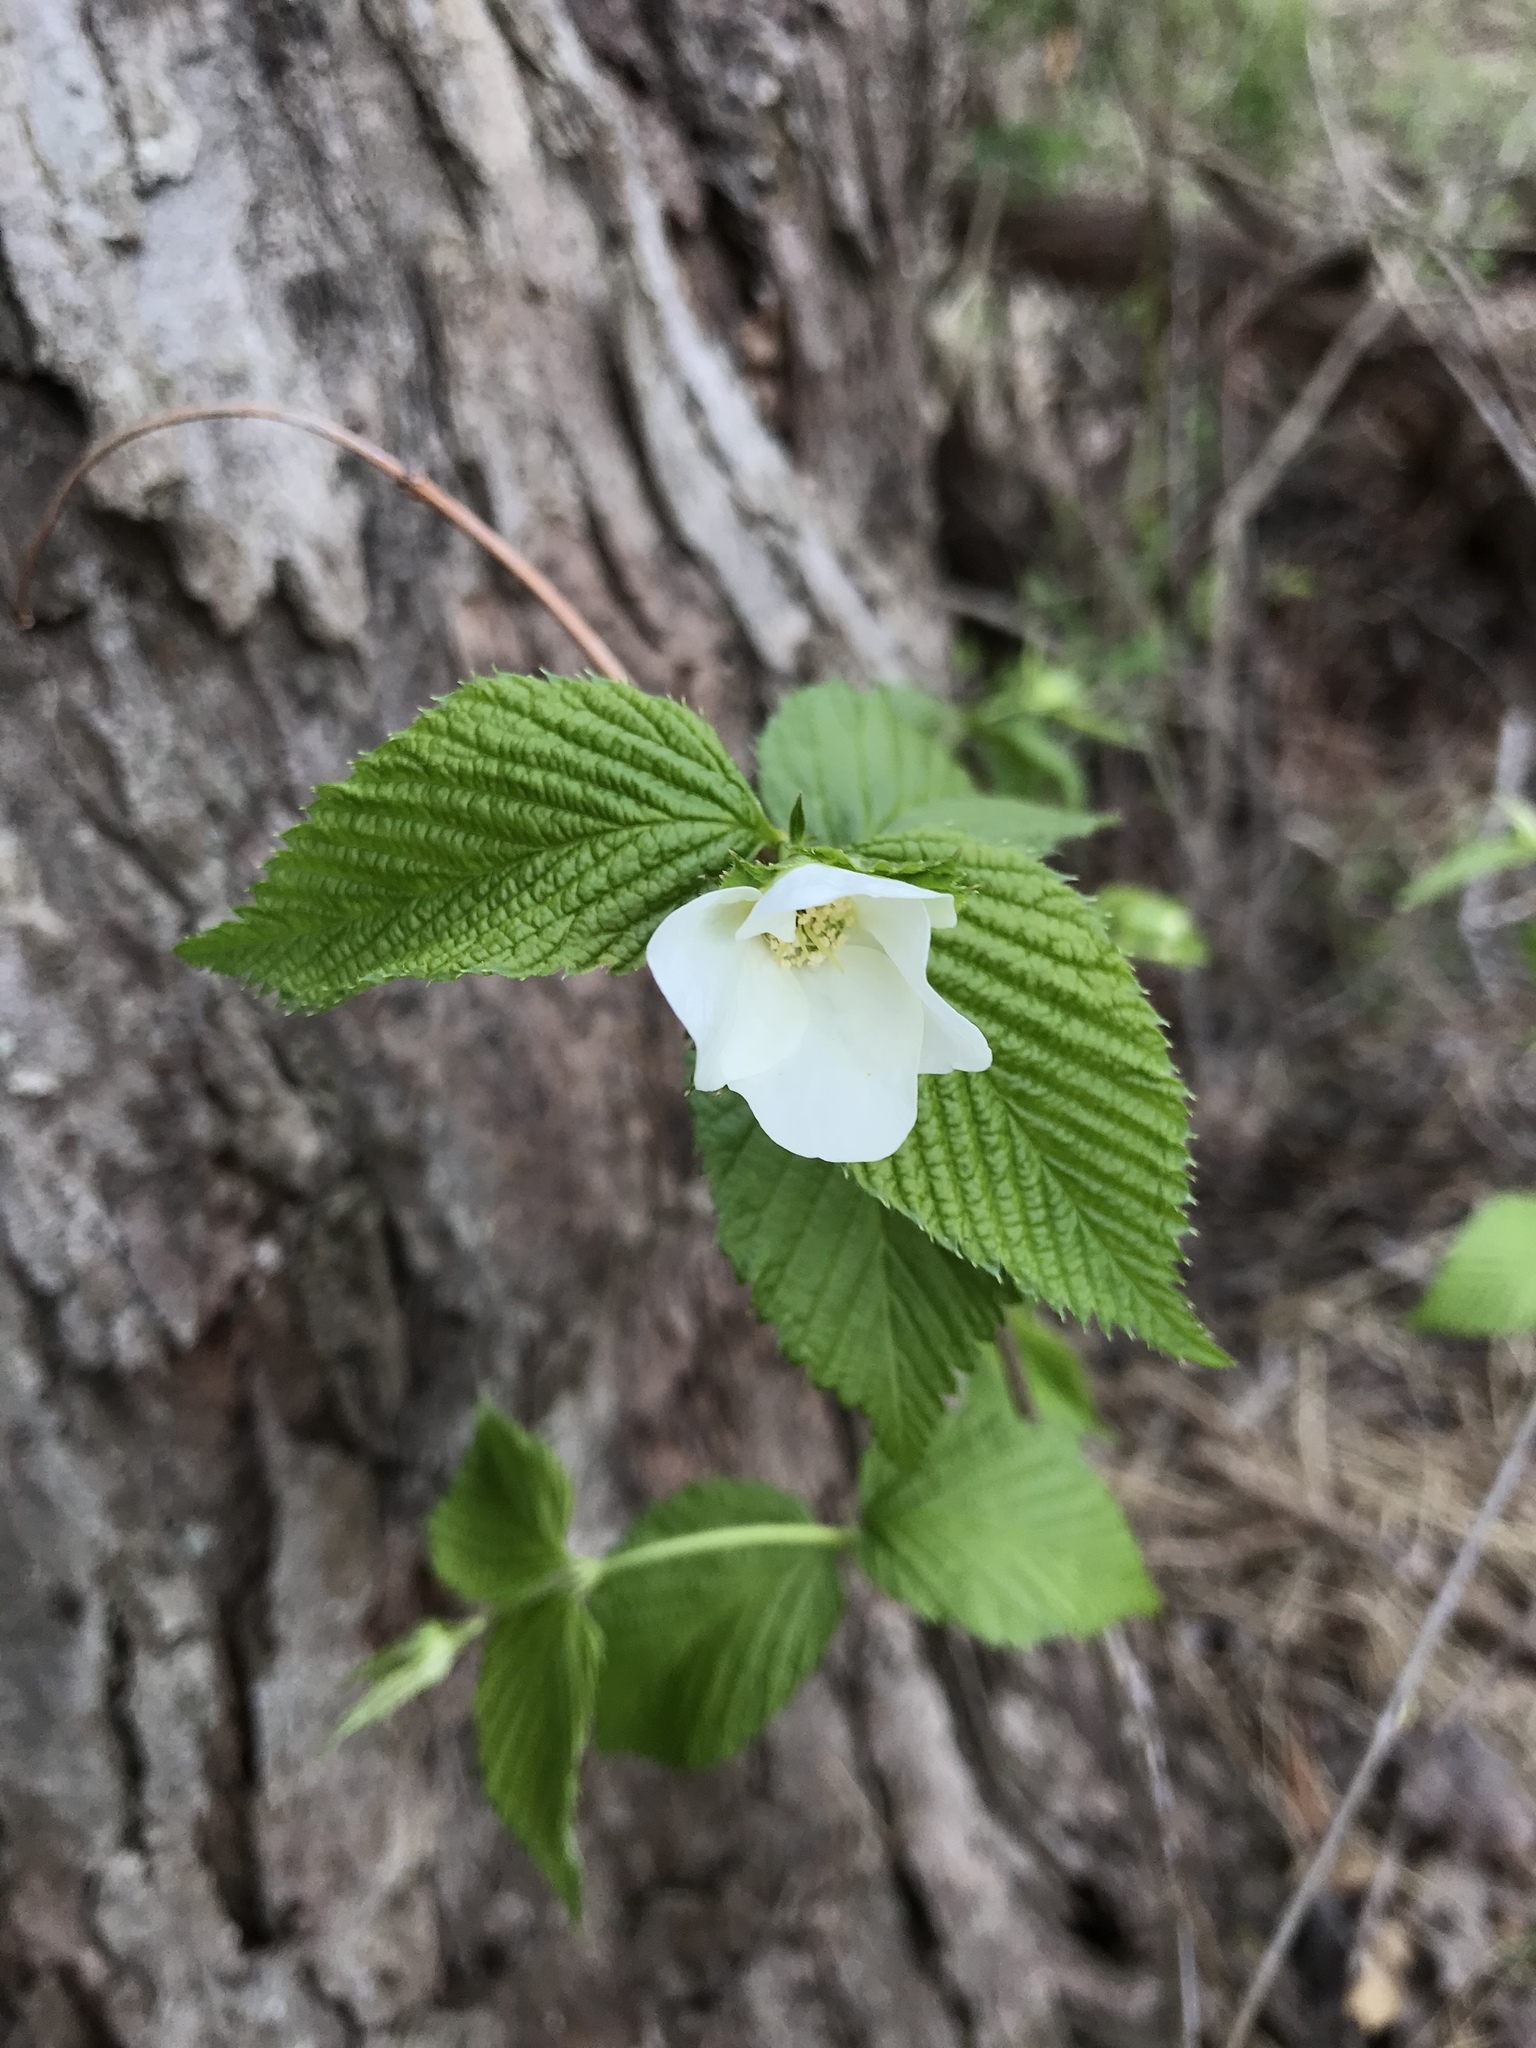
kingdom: Plantae
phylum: Tracheophyta
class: Magnoliopsida
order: Rosales
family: Rosaceae
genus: Rhodotypos
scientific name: Rhodotypos scandens
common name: Jetbead
